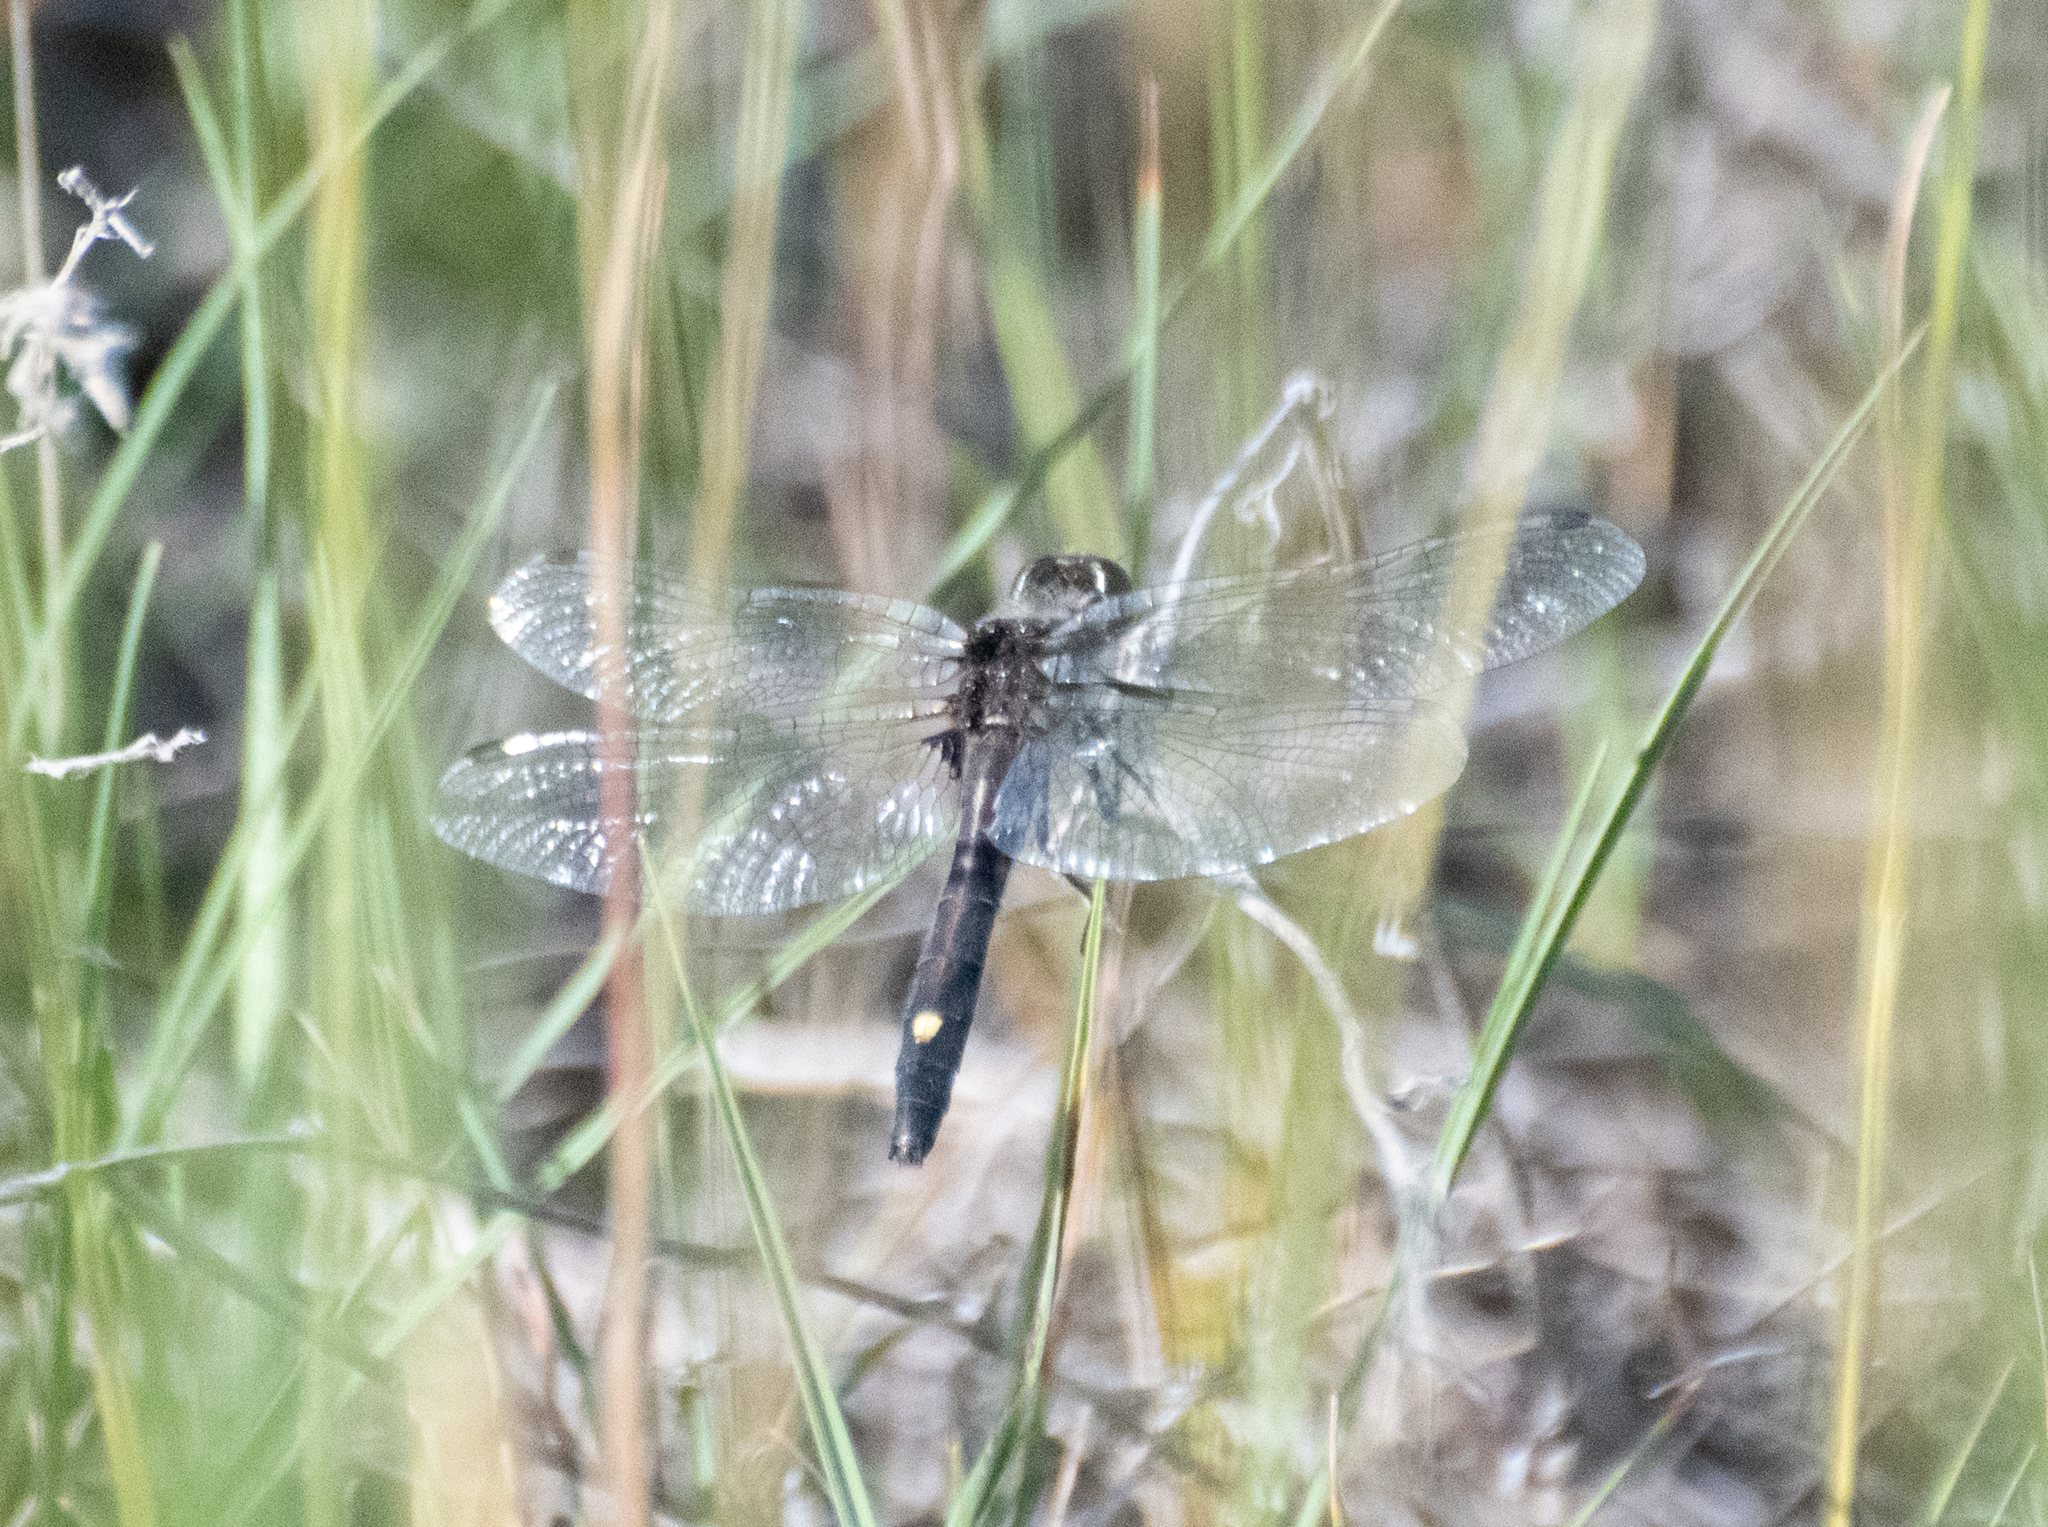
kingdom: Animalia
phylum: Arthropoda
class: Insecta
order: Odonata
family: Libellulidae
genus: Leucorrhinia
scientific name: Leucorrhinia intacta
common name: Dot-tailed whiteface
